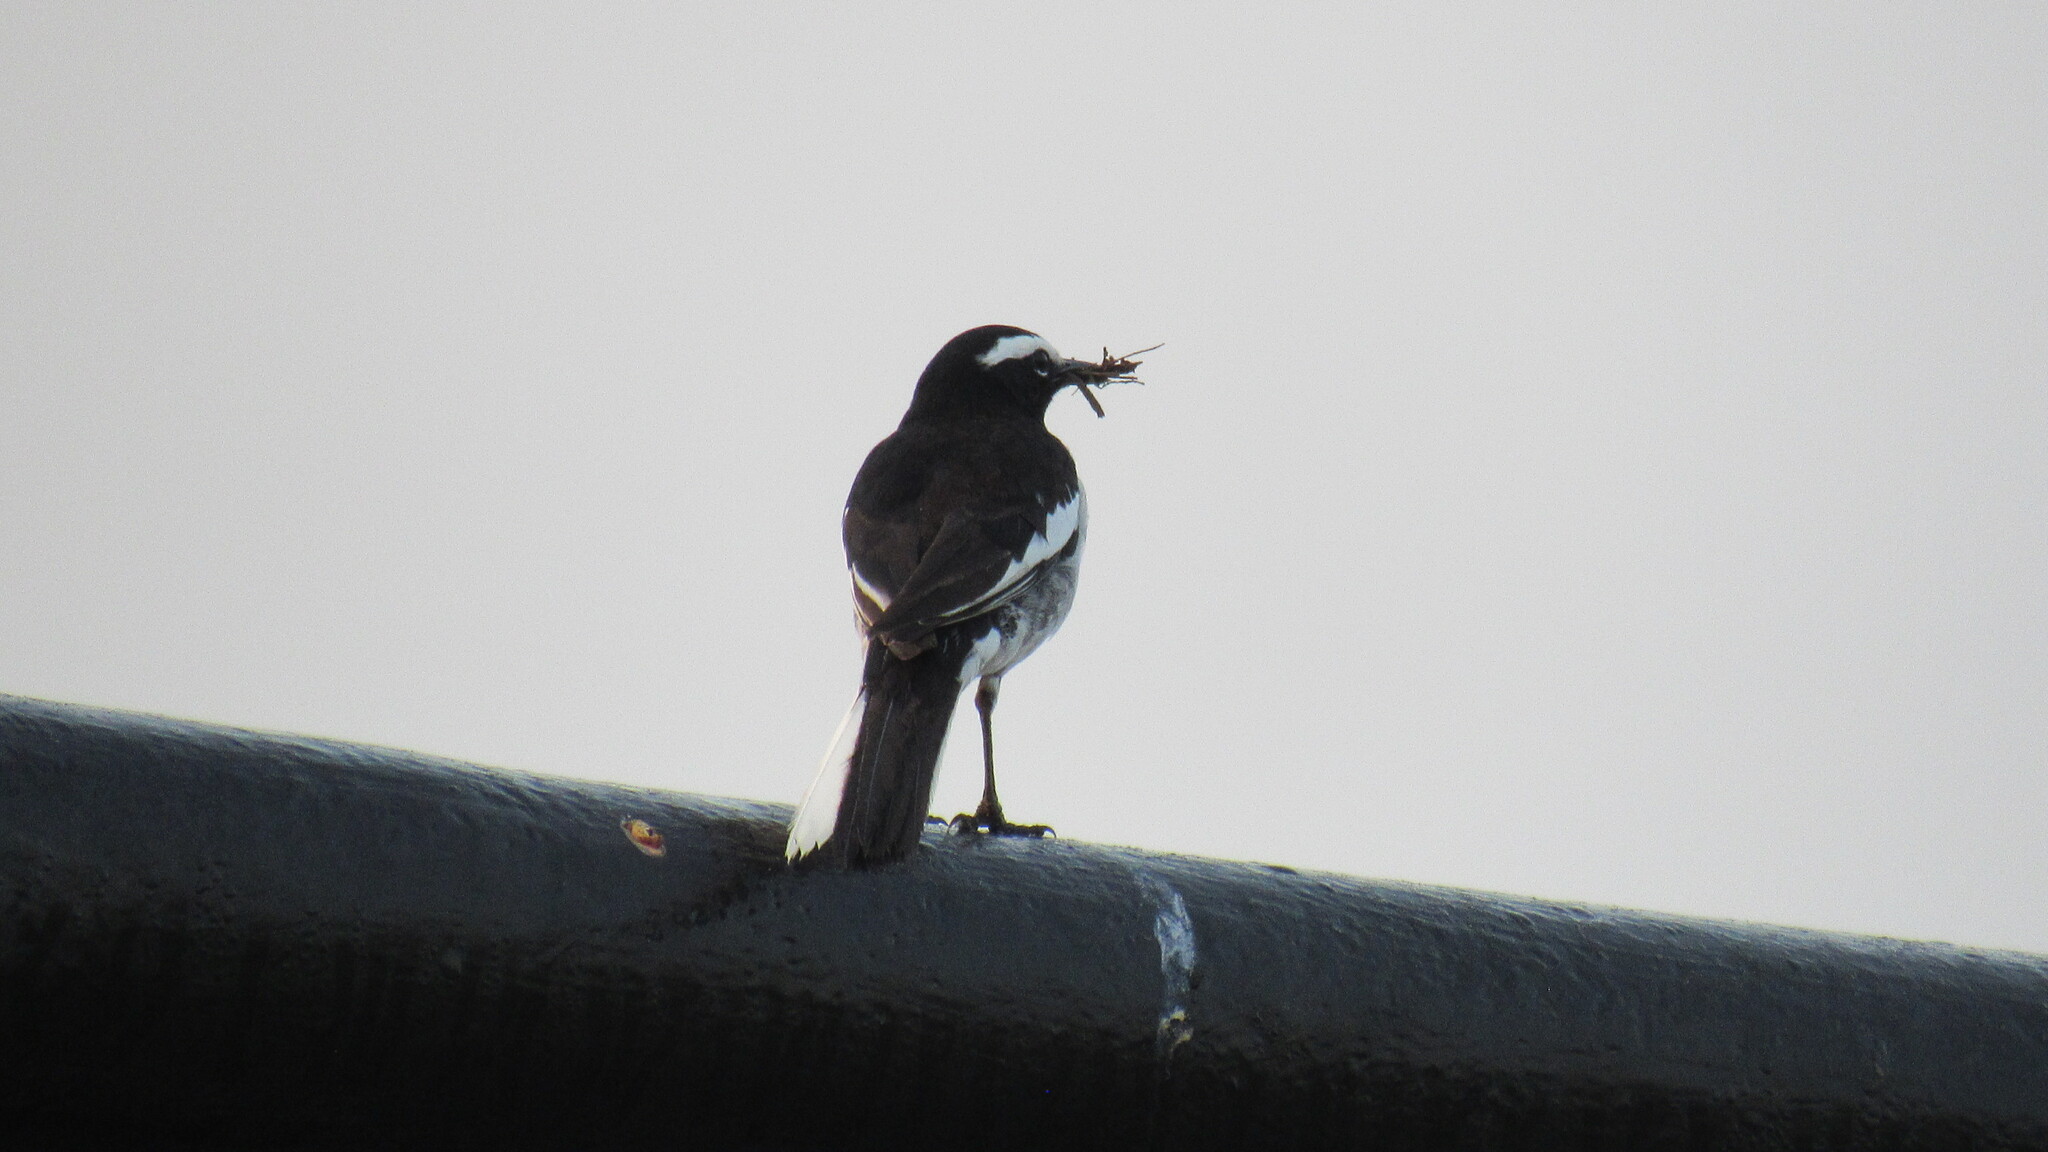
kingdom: Animalia
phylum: Chordata
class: Aves
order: Passeriformes
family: Motacillidae
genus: Motacilla
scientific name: Motacilla maderaspatensis
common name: White-browed wagtail
